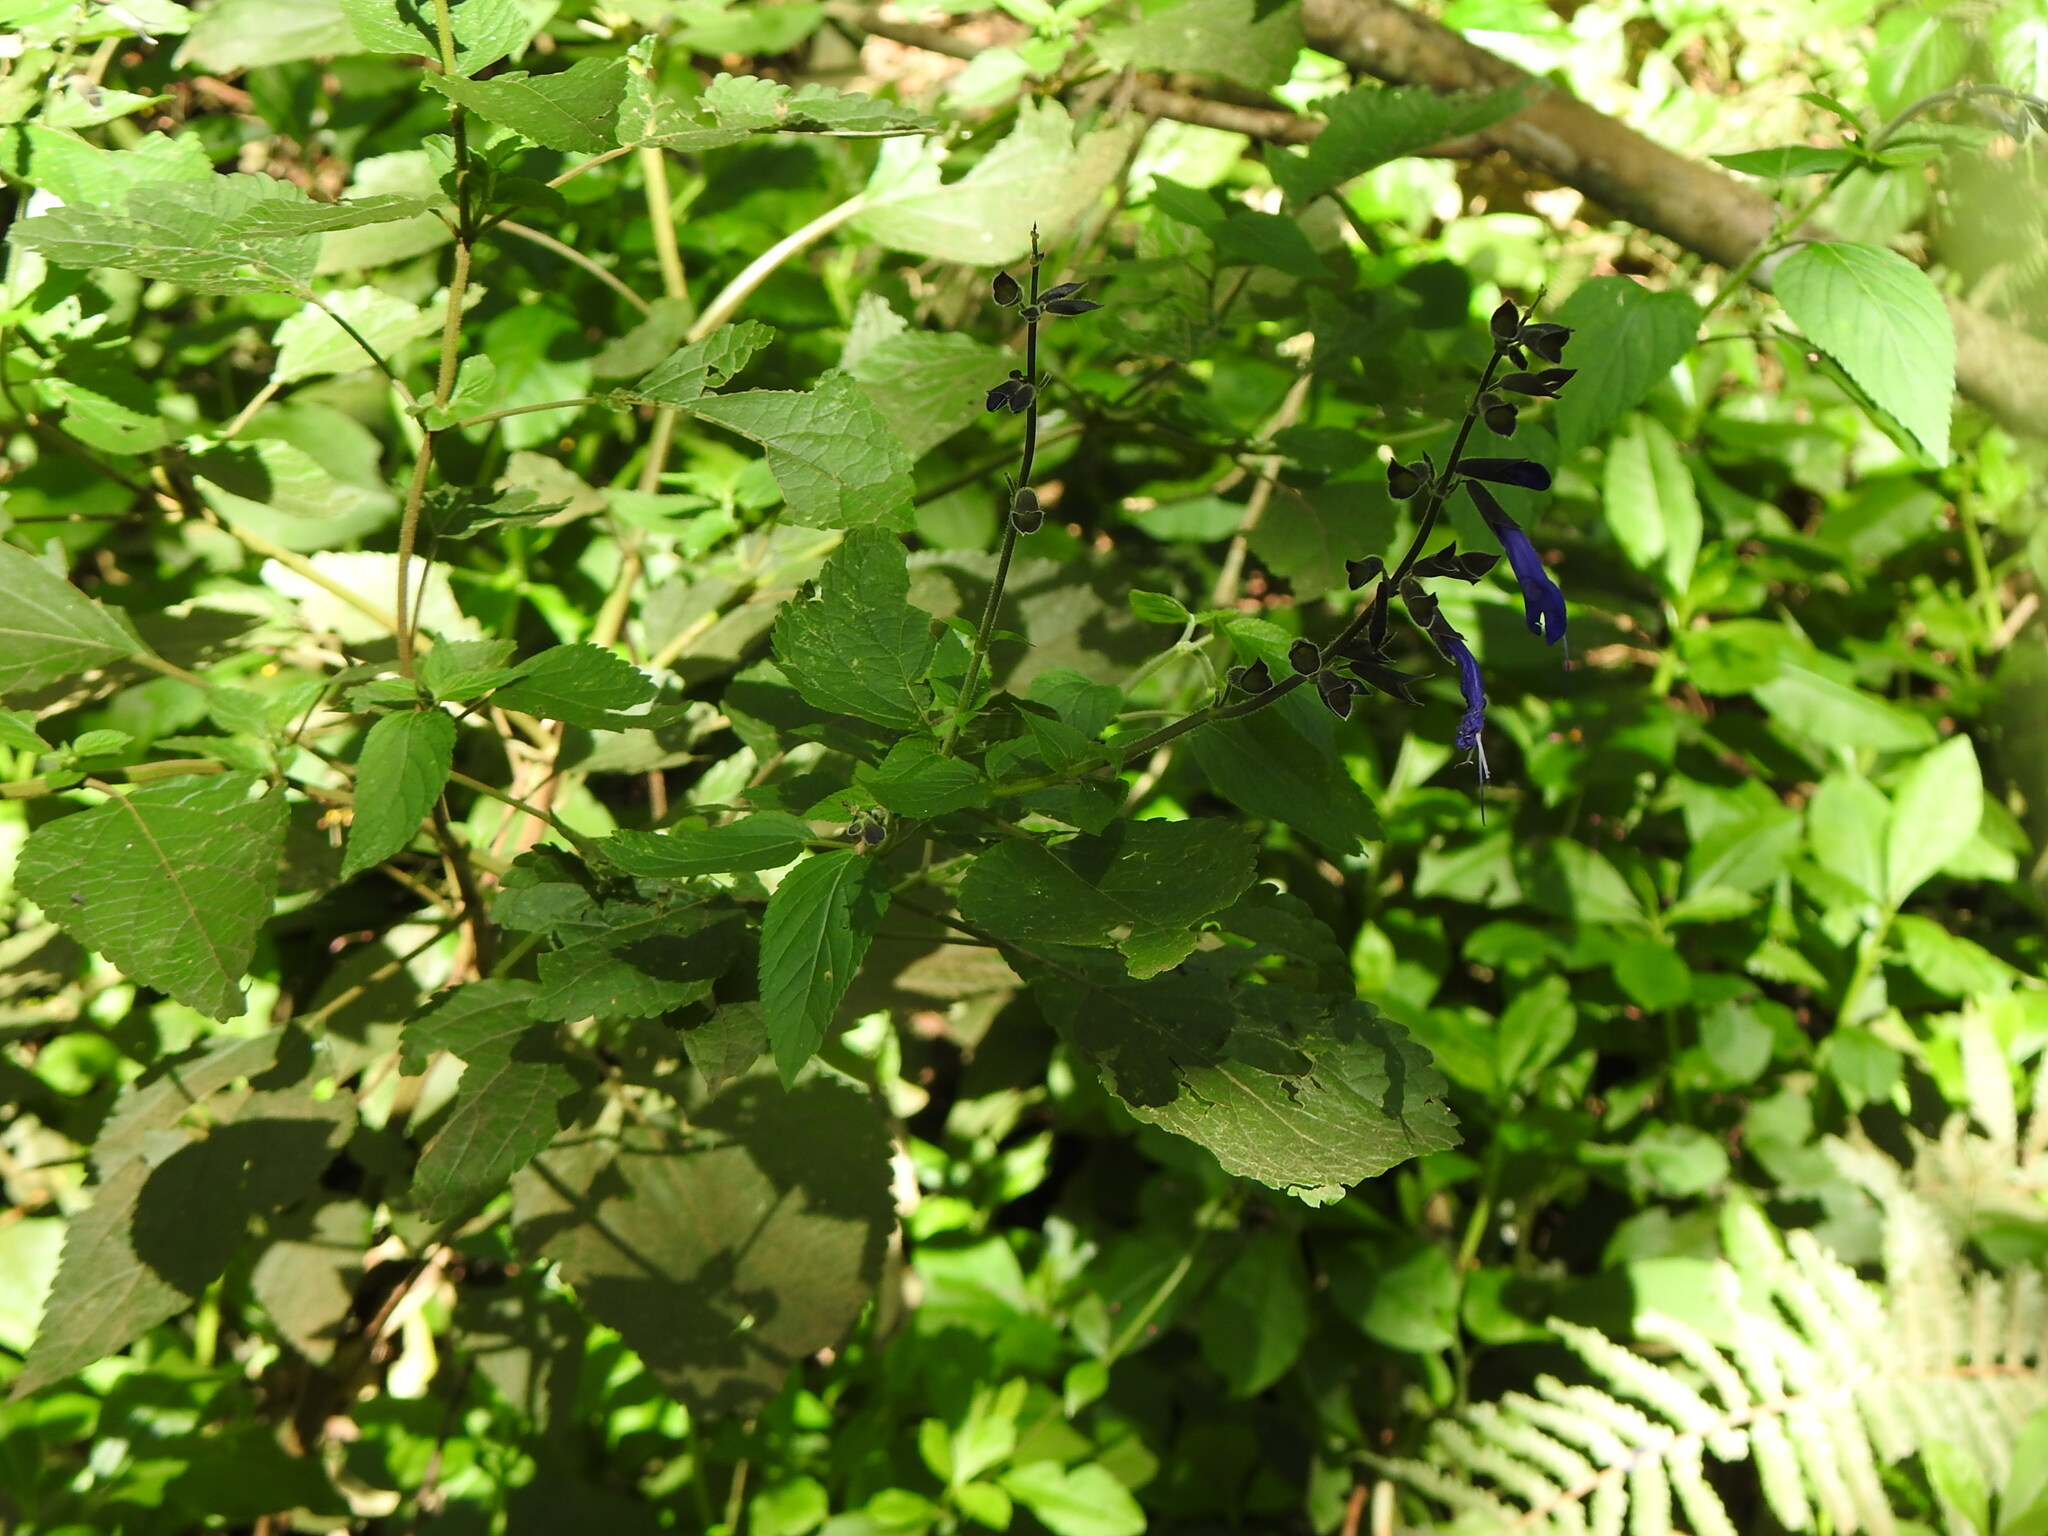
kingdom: Plantae
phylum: Tracheophyta
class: Magnoliopsida
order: Lamiales
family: Lamiaceae
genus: Salvia
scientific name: Salvia guaranitica
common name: Anise-scented sage
